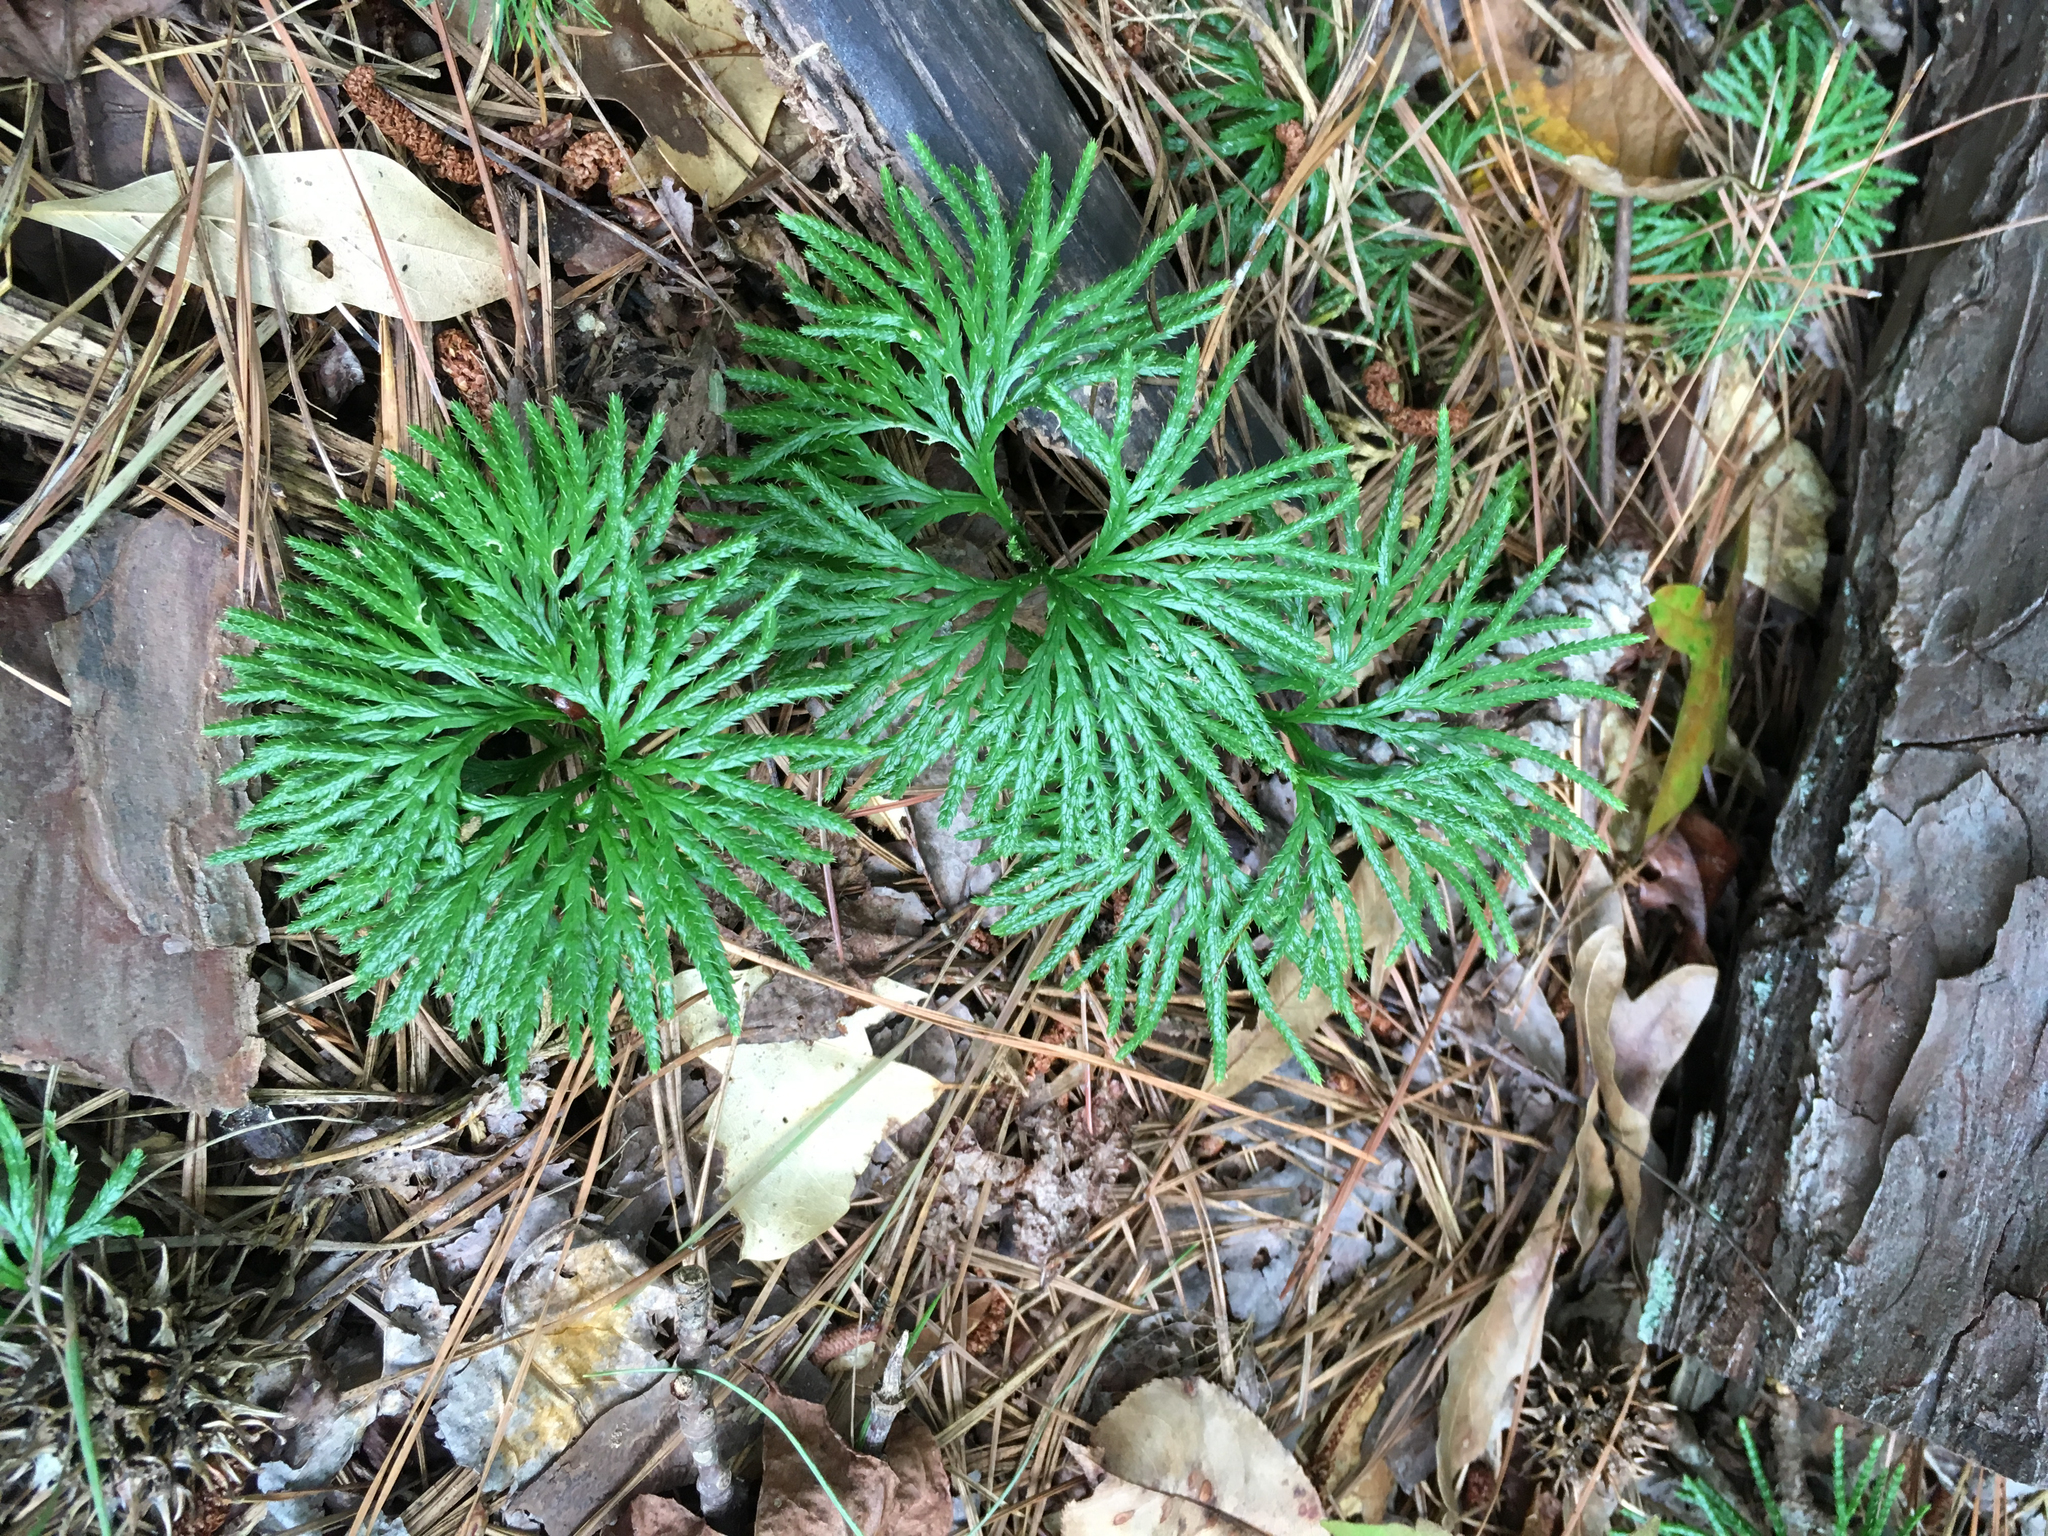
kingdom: Plantae
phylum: Tracheophyta
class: Lycopodiopsida
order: Lycopodiales
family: Lycopodiaceae
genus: Diphasiastrum
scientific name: Diphasiastrum digitatum
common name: Southern running-pine
